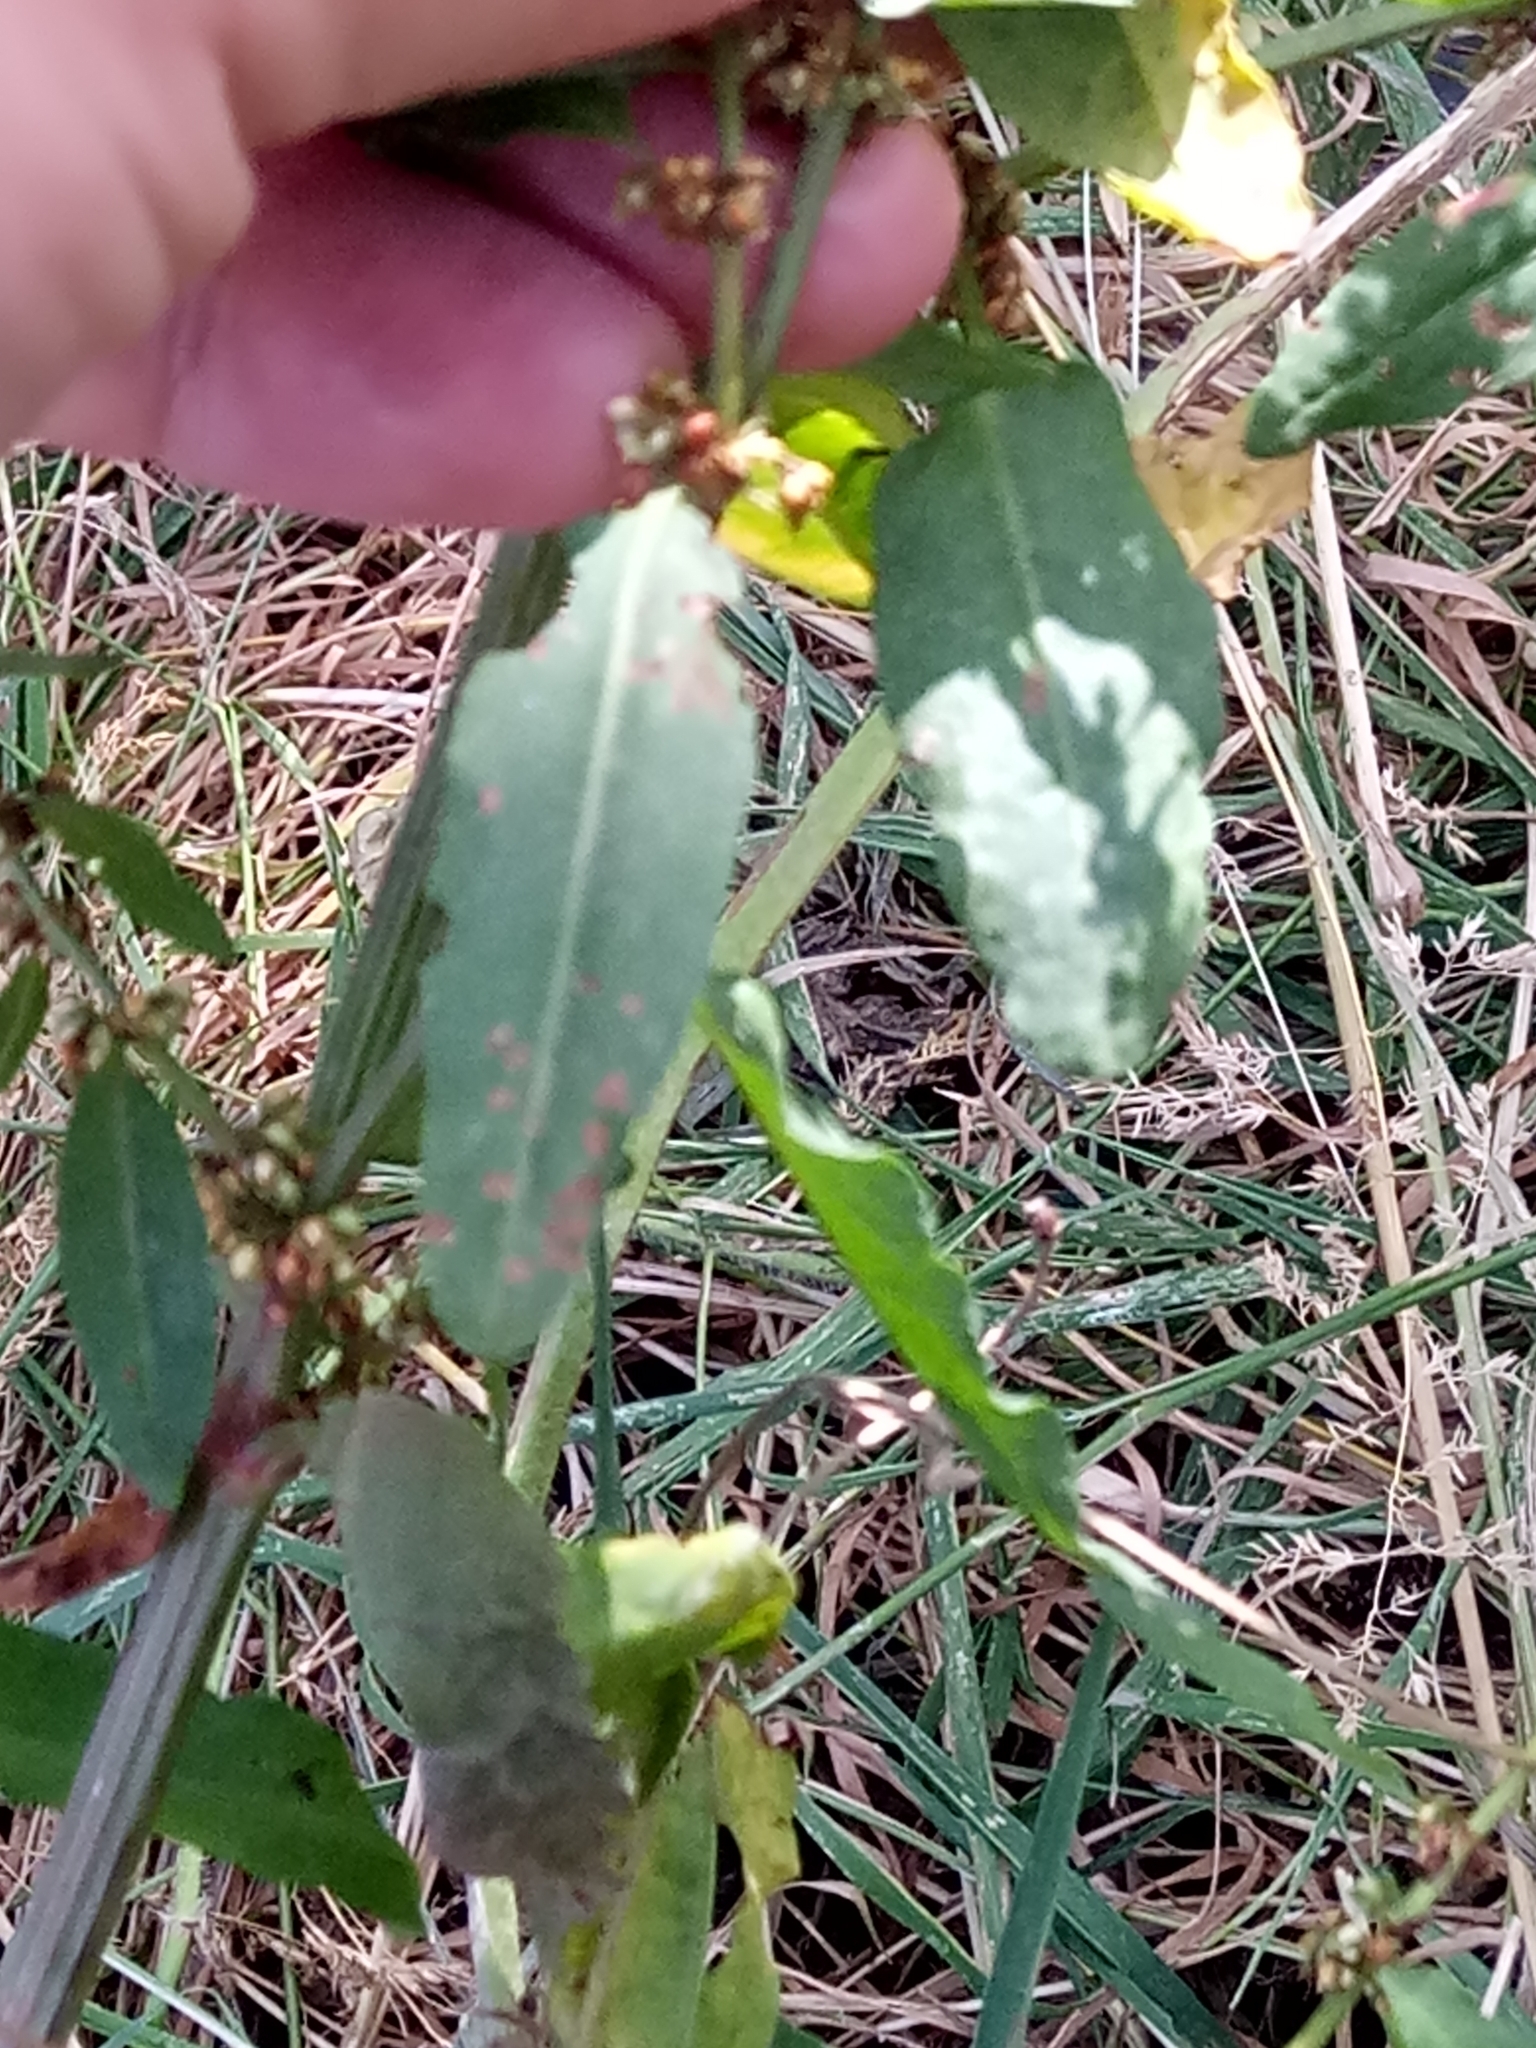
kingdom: Plantae
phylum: Tracheophyta
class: Magnoliopsida
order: Caryophyllales
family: Polygonaceae
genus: Rumex
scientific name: Rumex conglomeratus
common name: Clustered dock
